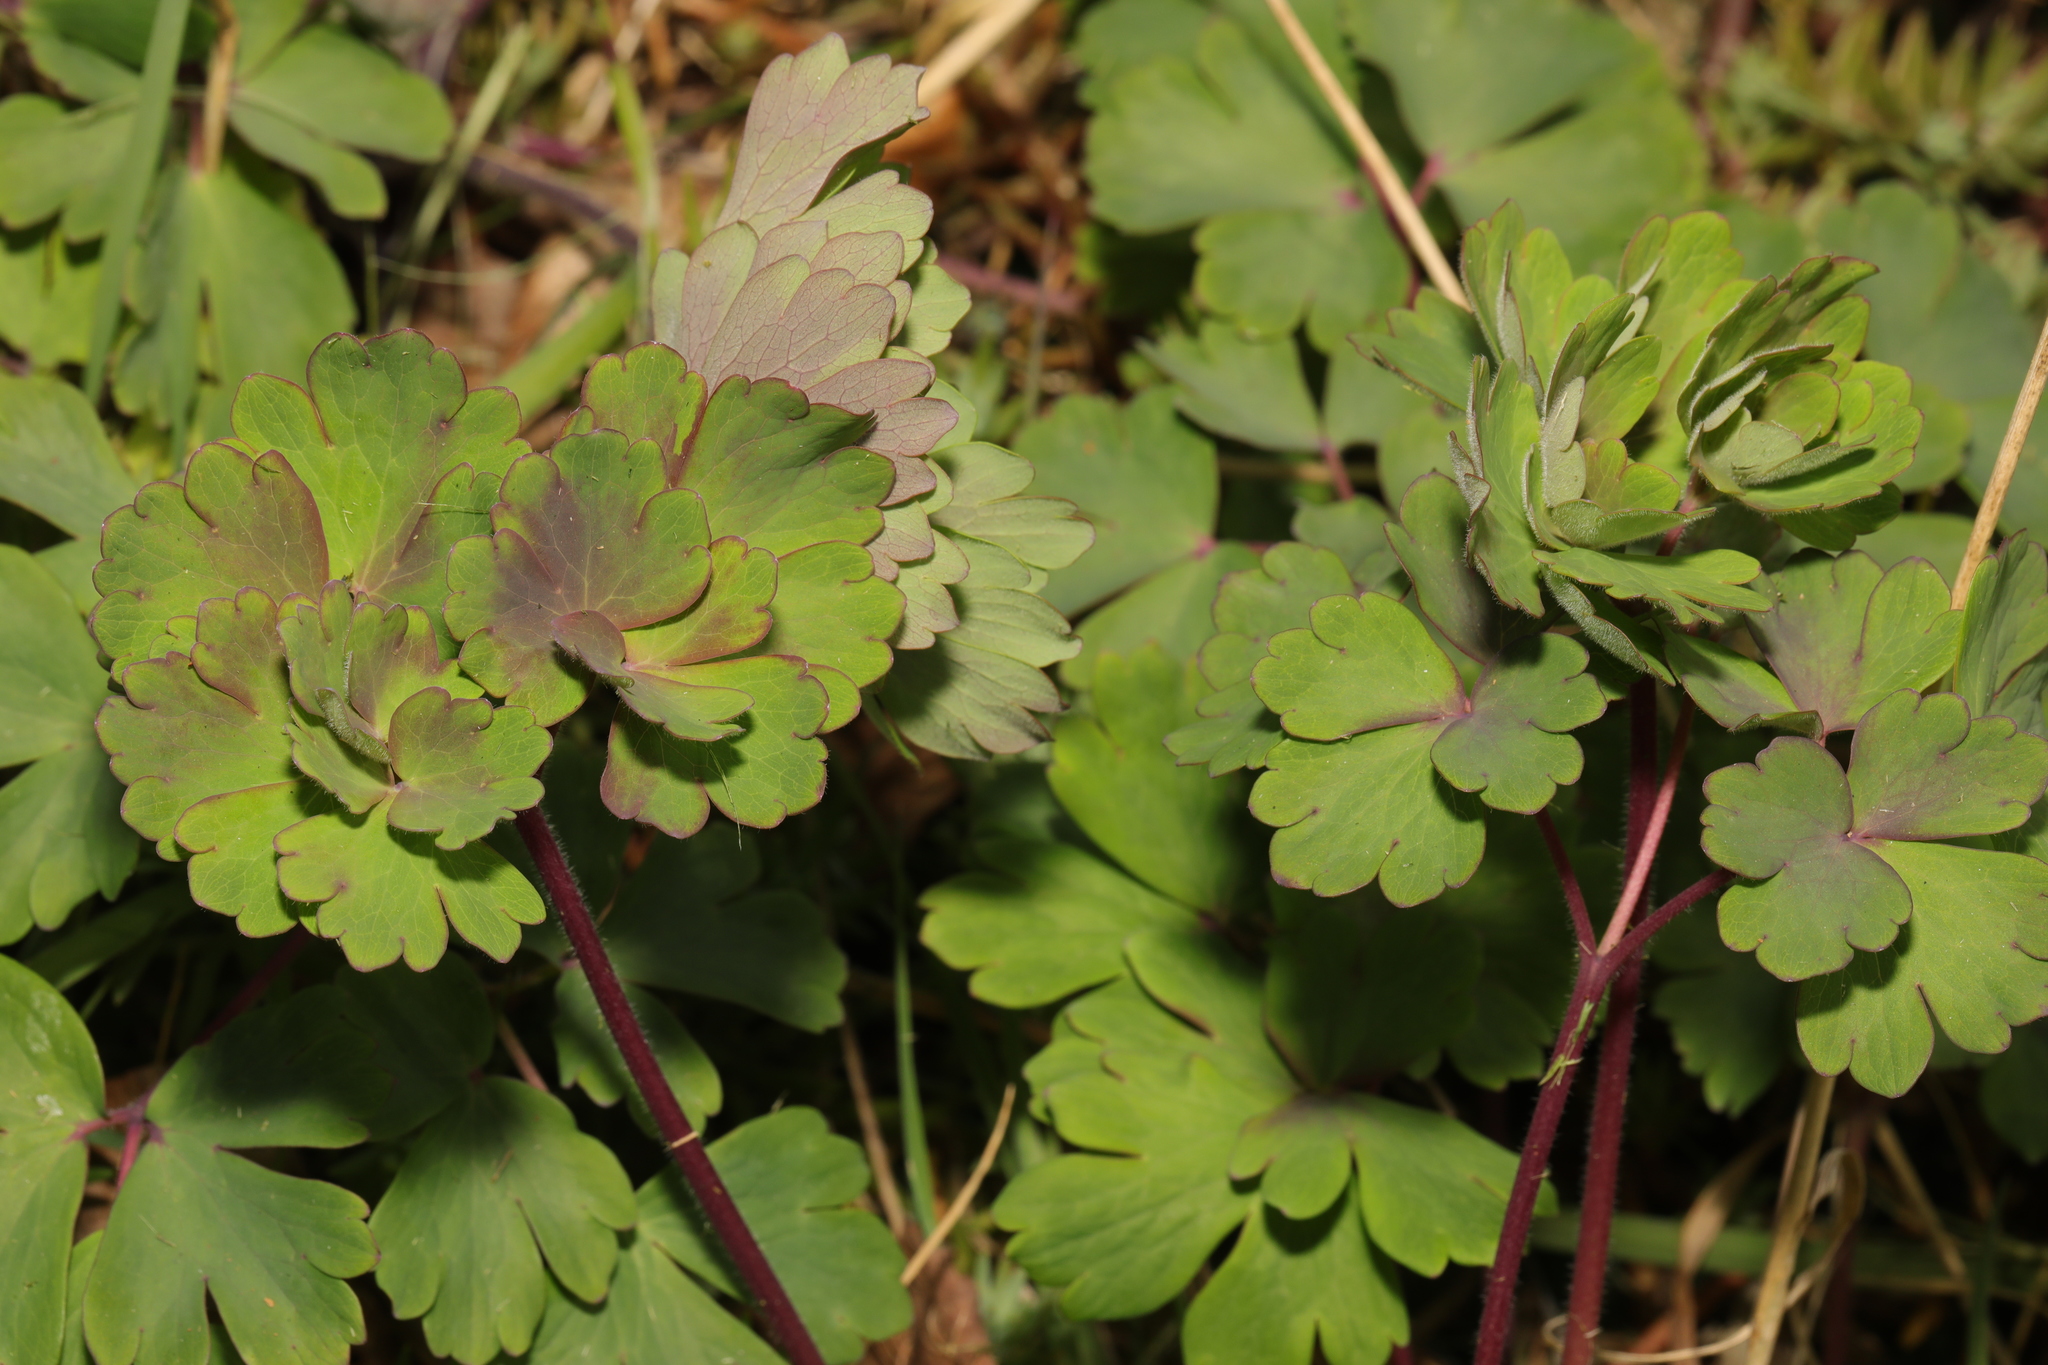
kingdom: Plantae
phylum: Tracheophyta
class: Magnoliopsida
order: Ranunculales
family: Ranunculaceae
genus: Aquilegia
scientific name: Aquilegia vulgaris
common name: Columbine
